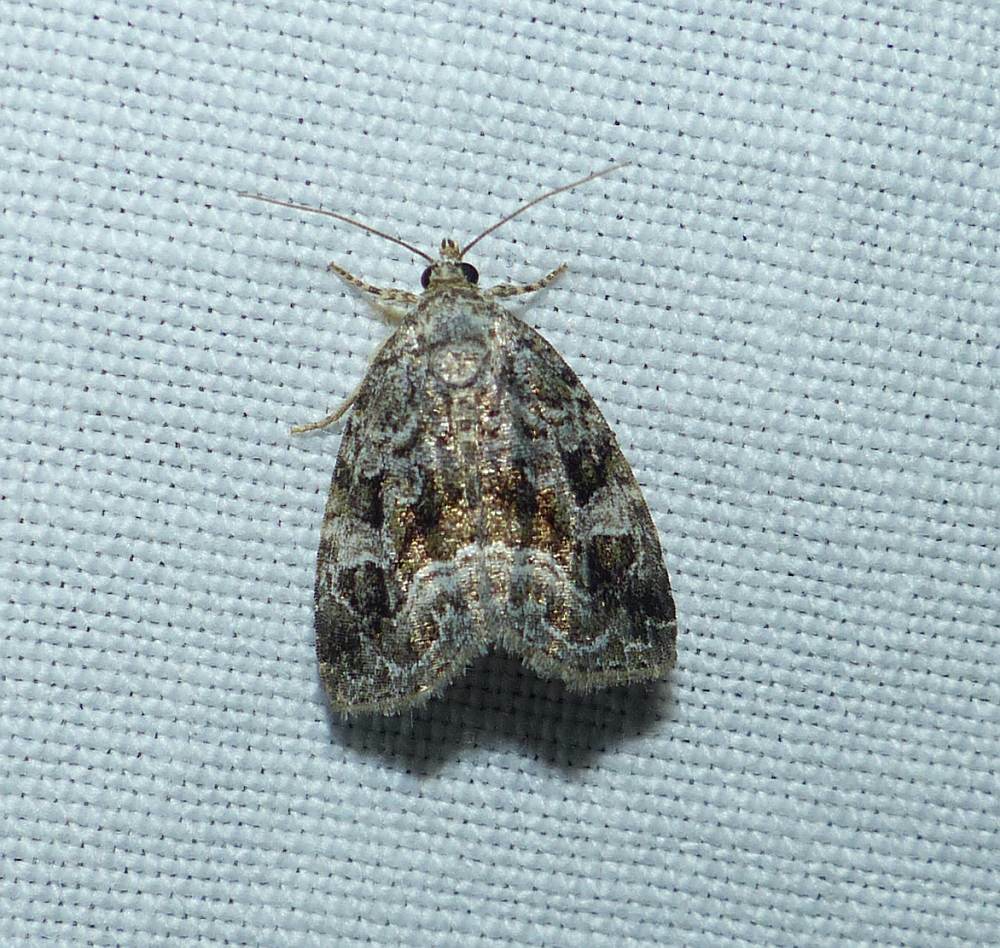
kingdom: Animalia
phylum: Arthropoda
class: Insecta
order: Lepidoptera
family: Noctuidae
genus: Protodeltote
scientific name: Protodeltote muscosula
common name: Large mossy glyph
